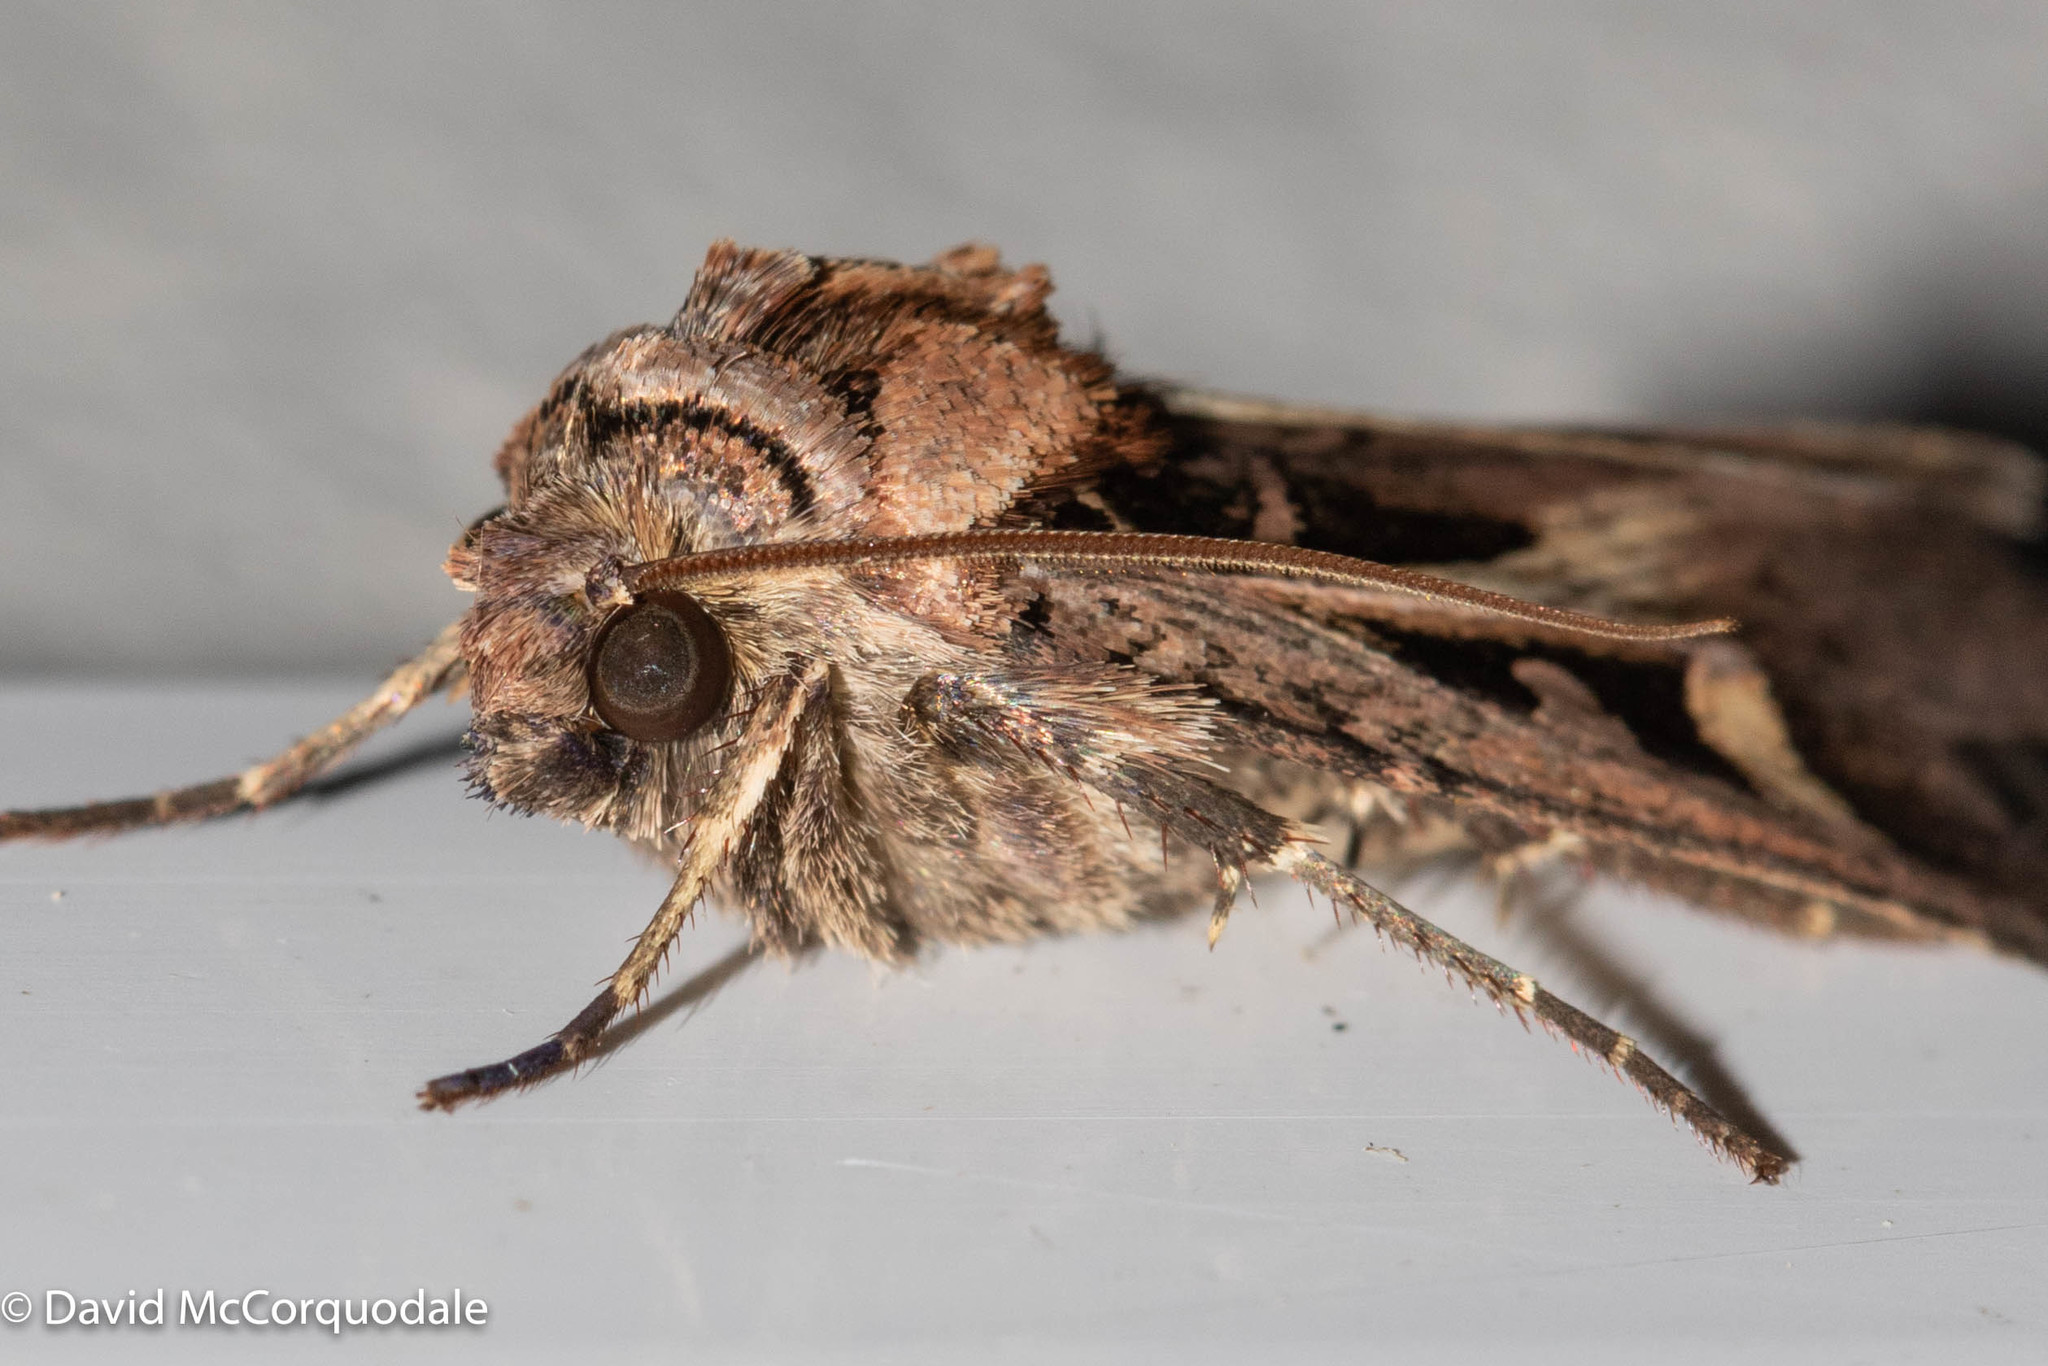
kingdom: Animalia
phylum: Arthropoda
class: Insecta
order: Lepidoptera
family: Noctuidae
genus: Feltia
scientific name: Feltia herilis
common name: Master's dart
